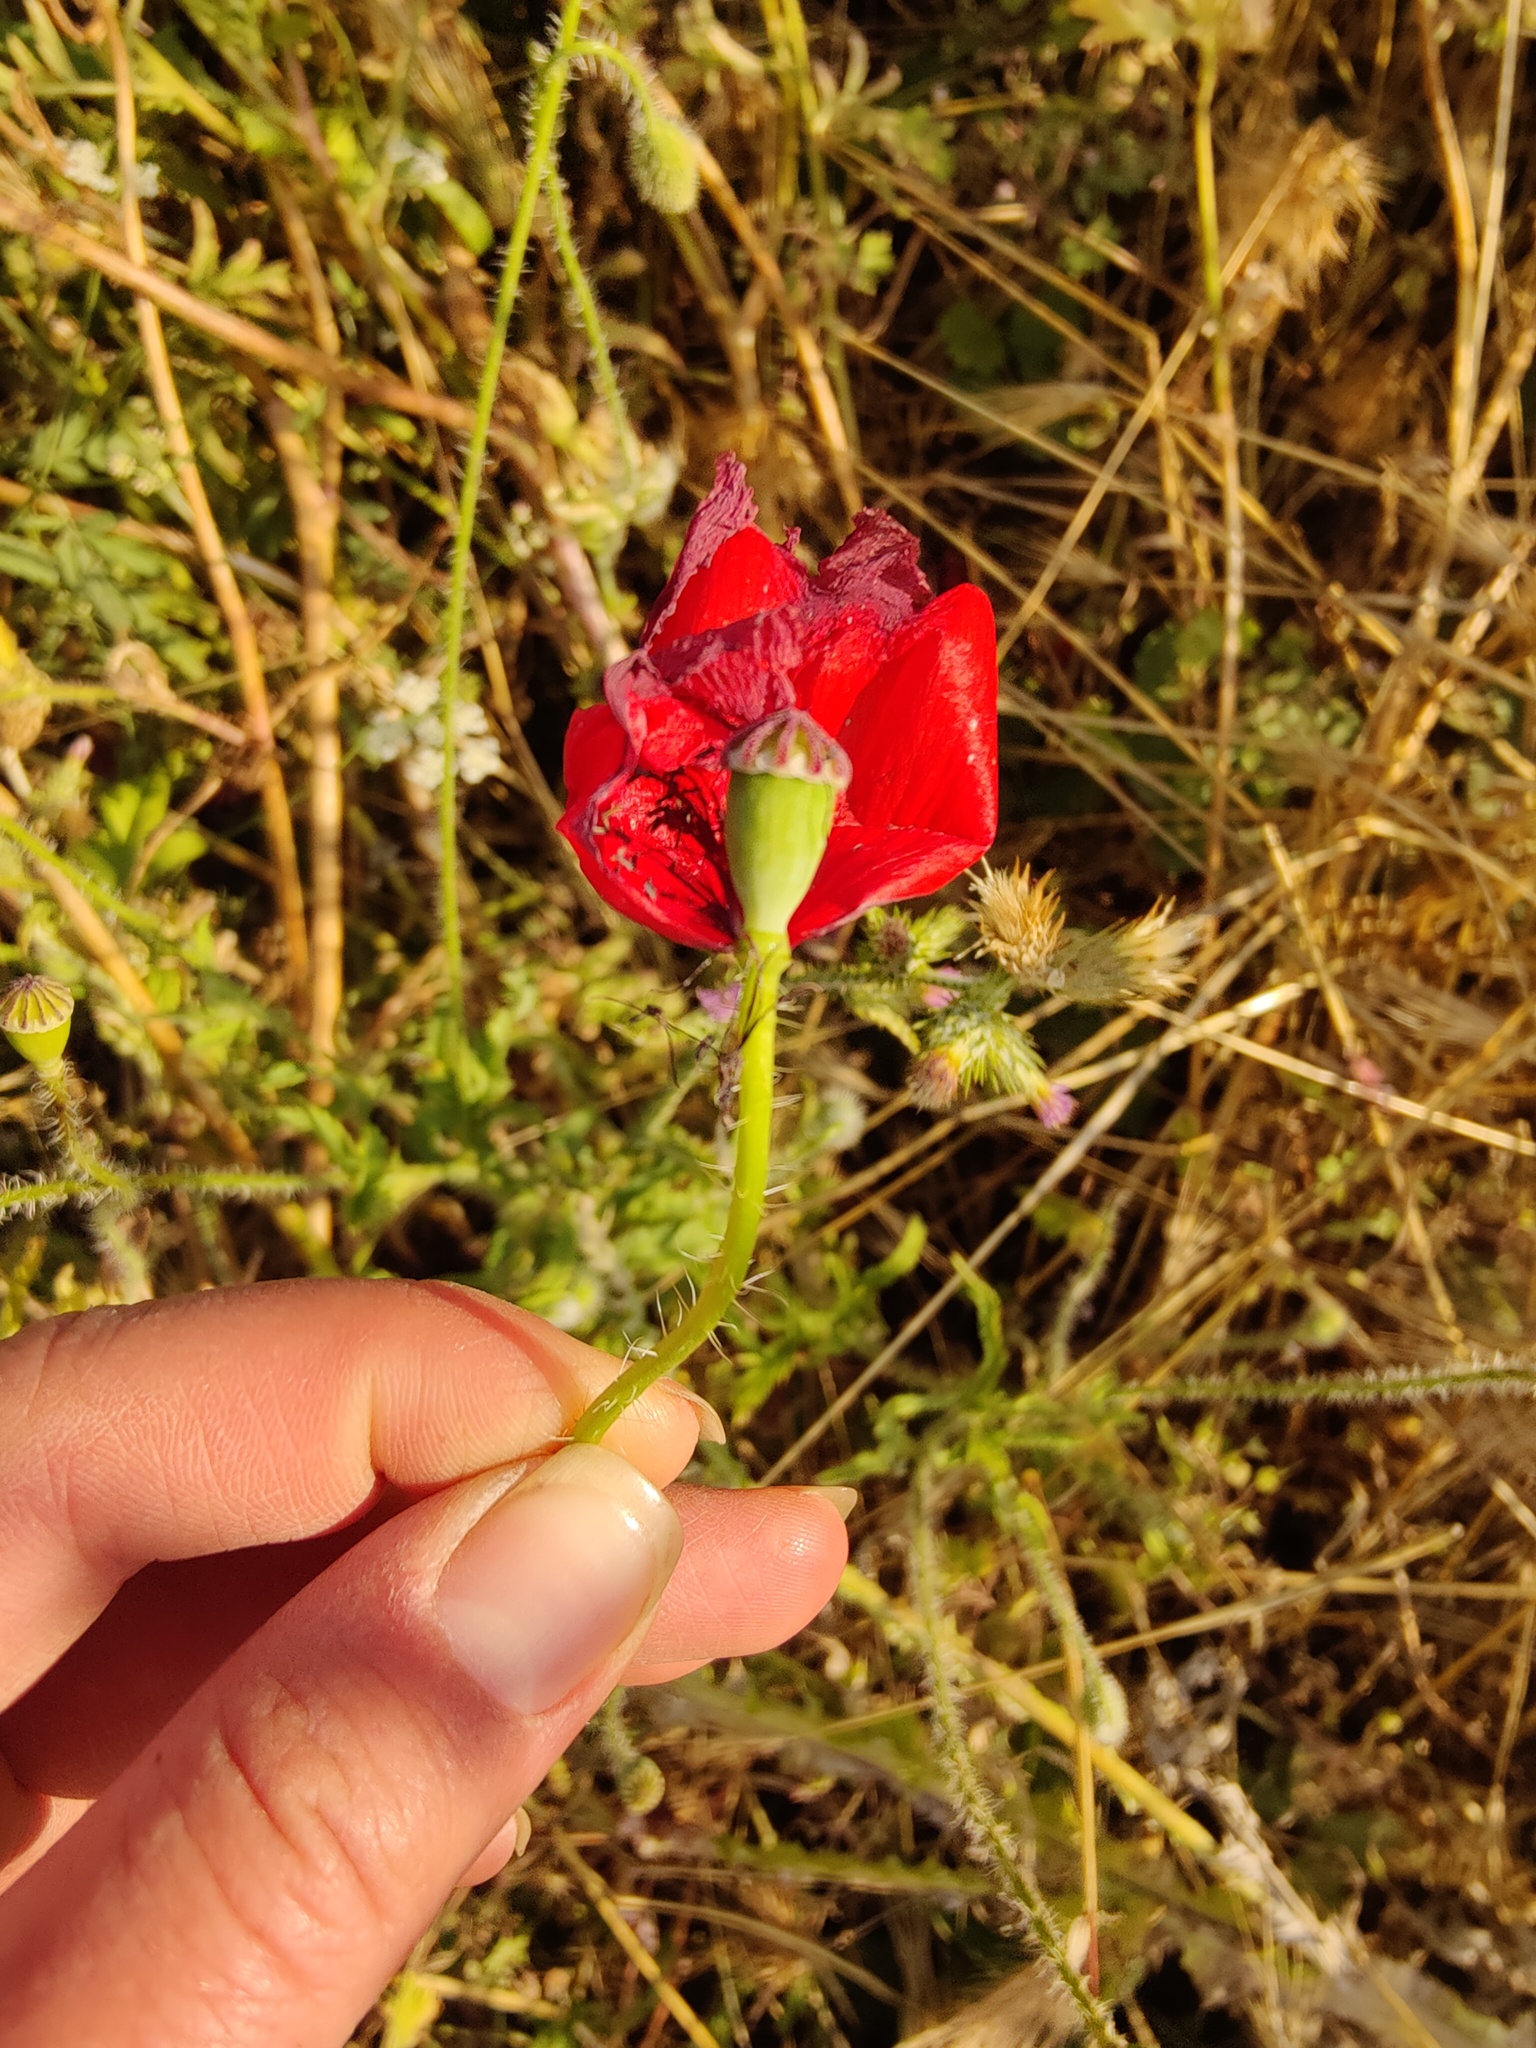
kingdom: Plantae
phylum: Tracheophyta
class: Magnoliopsida
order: Ranunculales
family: Papaveraceae
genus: Papaver
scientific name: Papaver rhoeas
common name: Corn poppy
